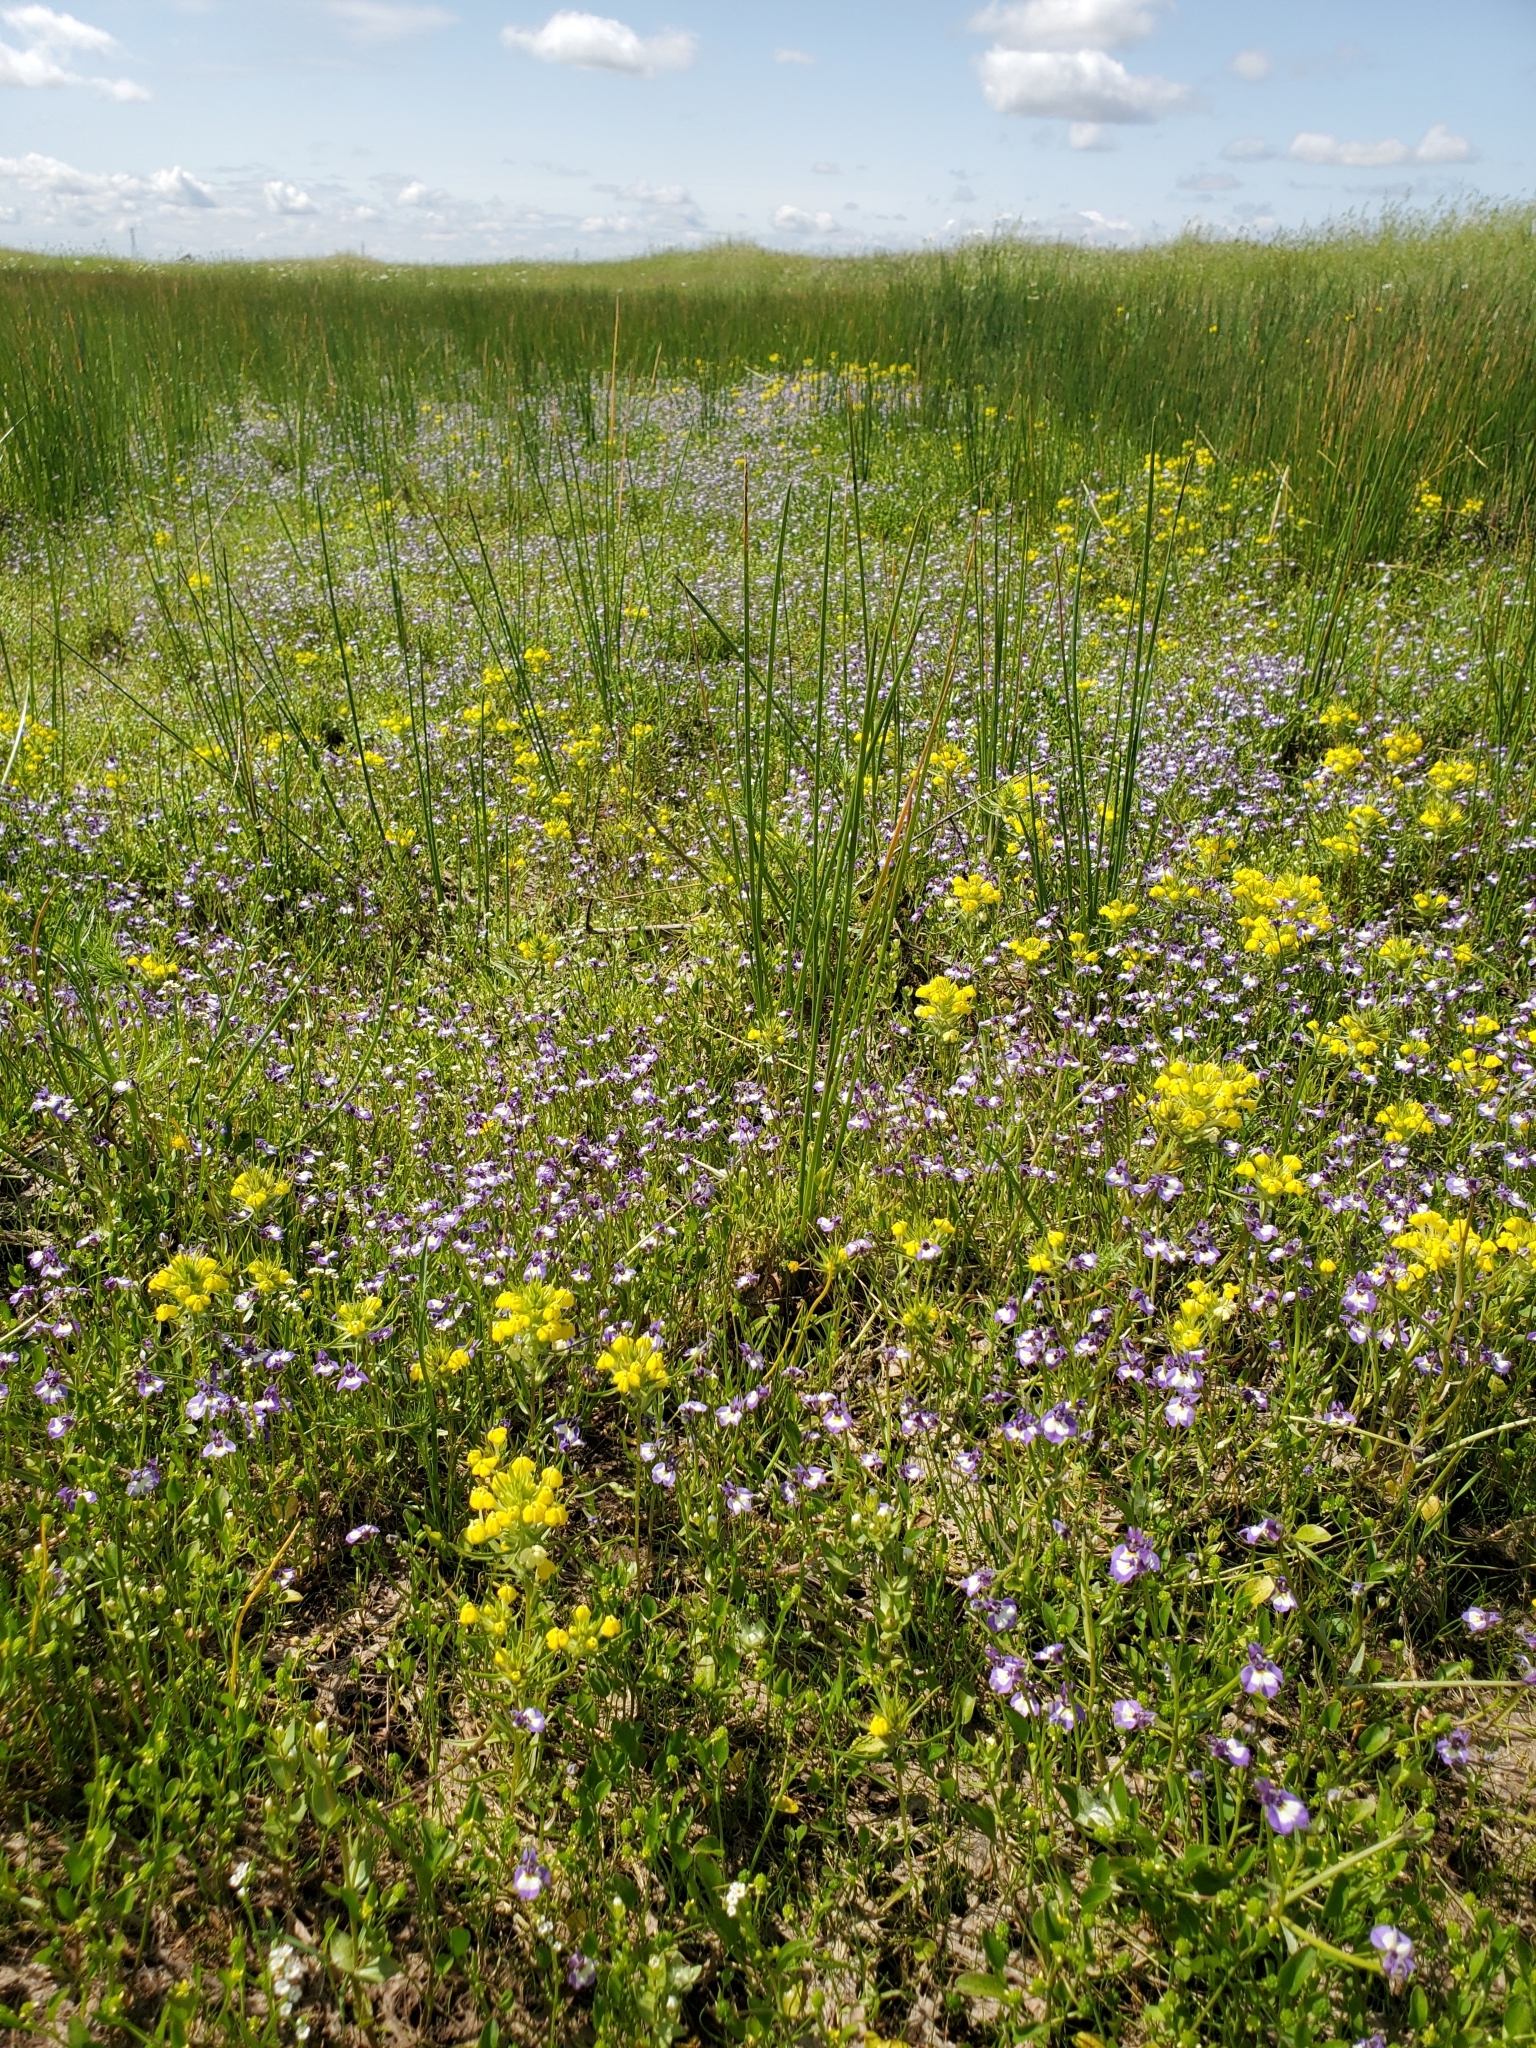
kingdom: Plantae
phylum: Tracheophyta
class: Magnoliopsida
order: Asterales
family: Campanulaceae
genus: Downingia
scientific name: Downingia bicornuta
